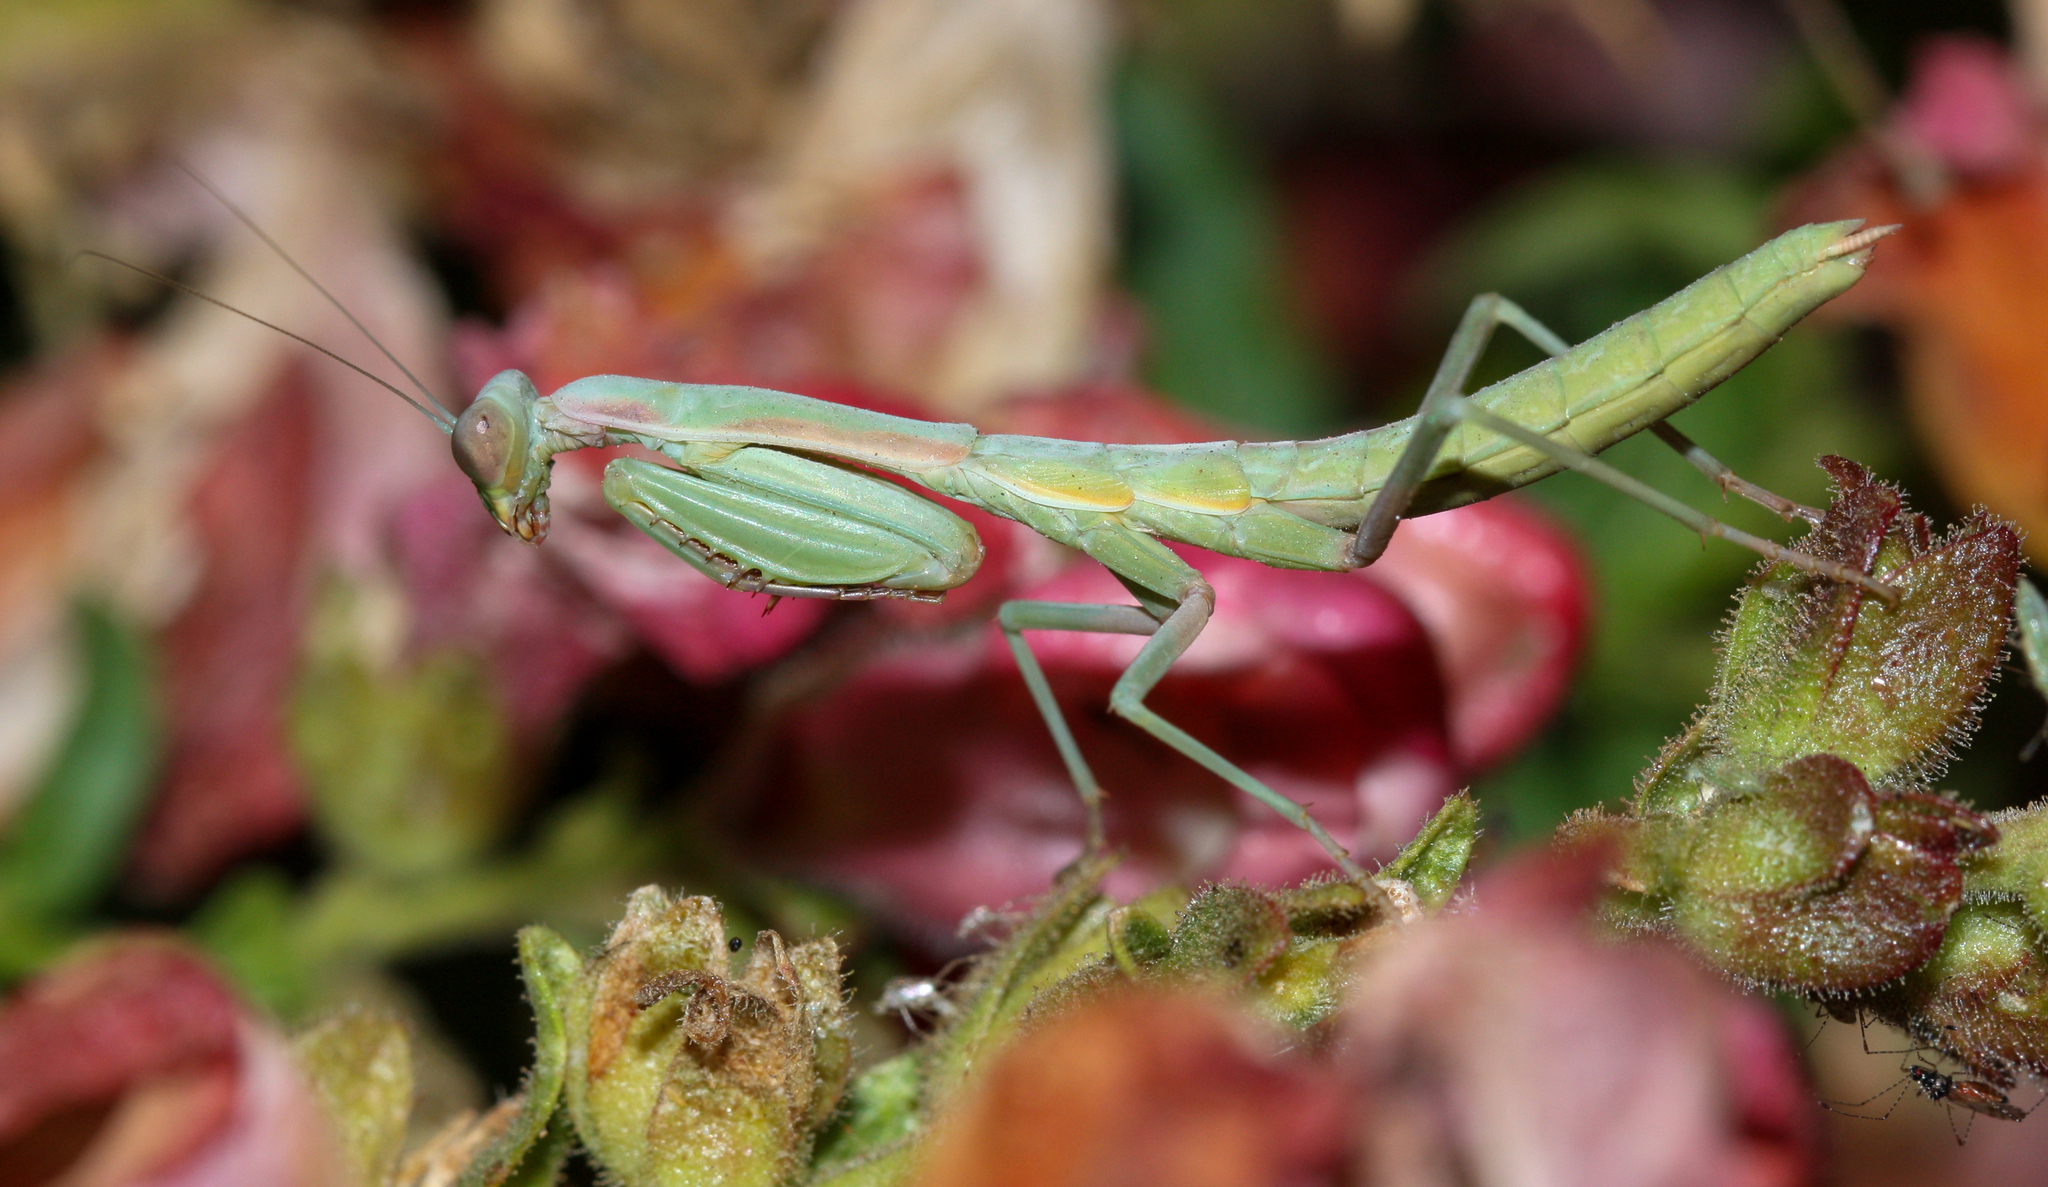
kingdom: Animalia
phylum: Arthropoda
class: Insecta
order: Mantodea
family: Eremiaphilidae
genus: Iris
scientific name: Iris oratoria
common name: Mediterranean mantis
